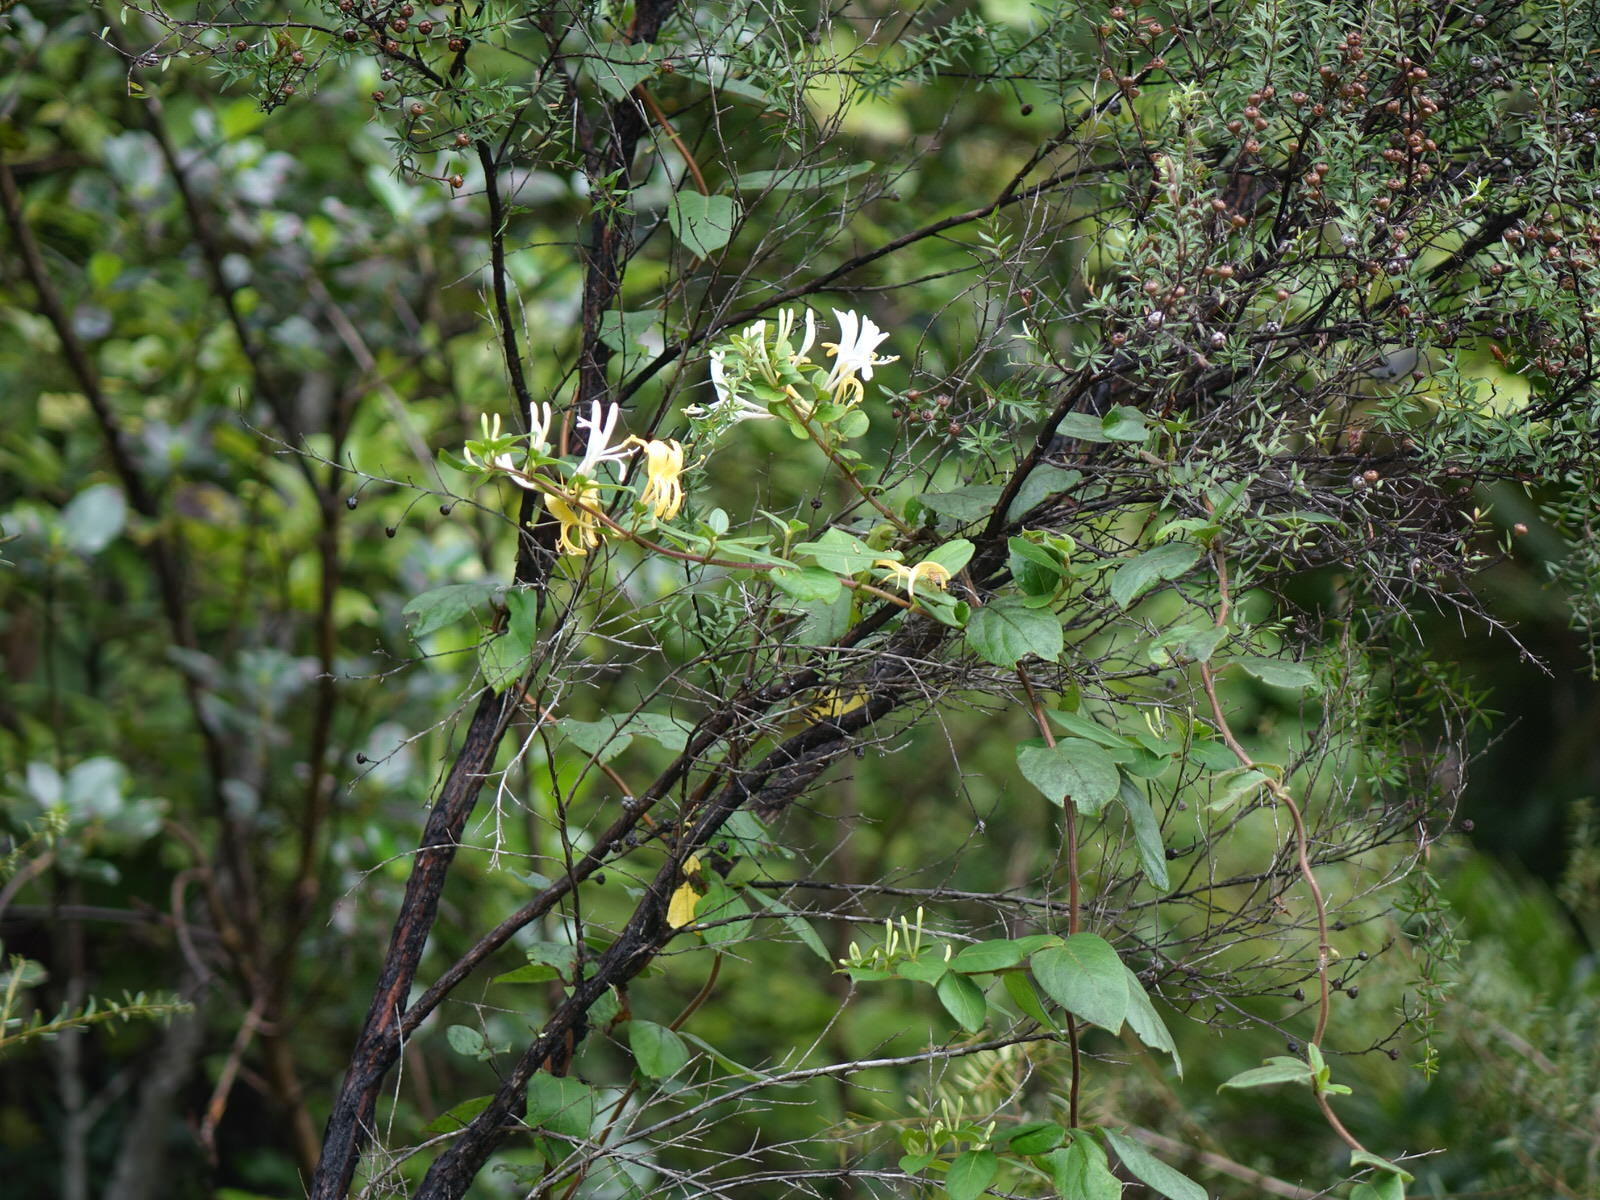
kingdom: Plantae
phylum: Tracheophyta
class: Magnoliopsida
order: Dipsacales
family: Caprifoliaceae
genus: Lonicera
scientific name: Lonicera japonica
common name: Japanese honeysuckle
